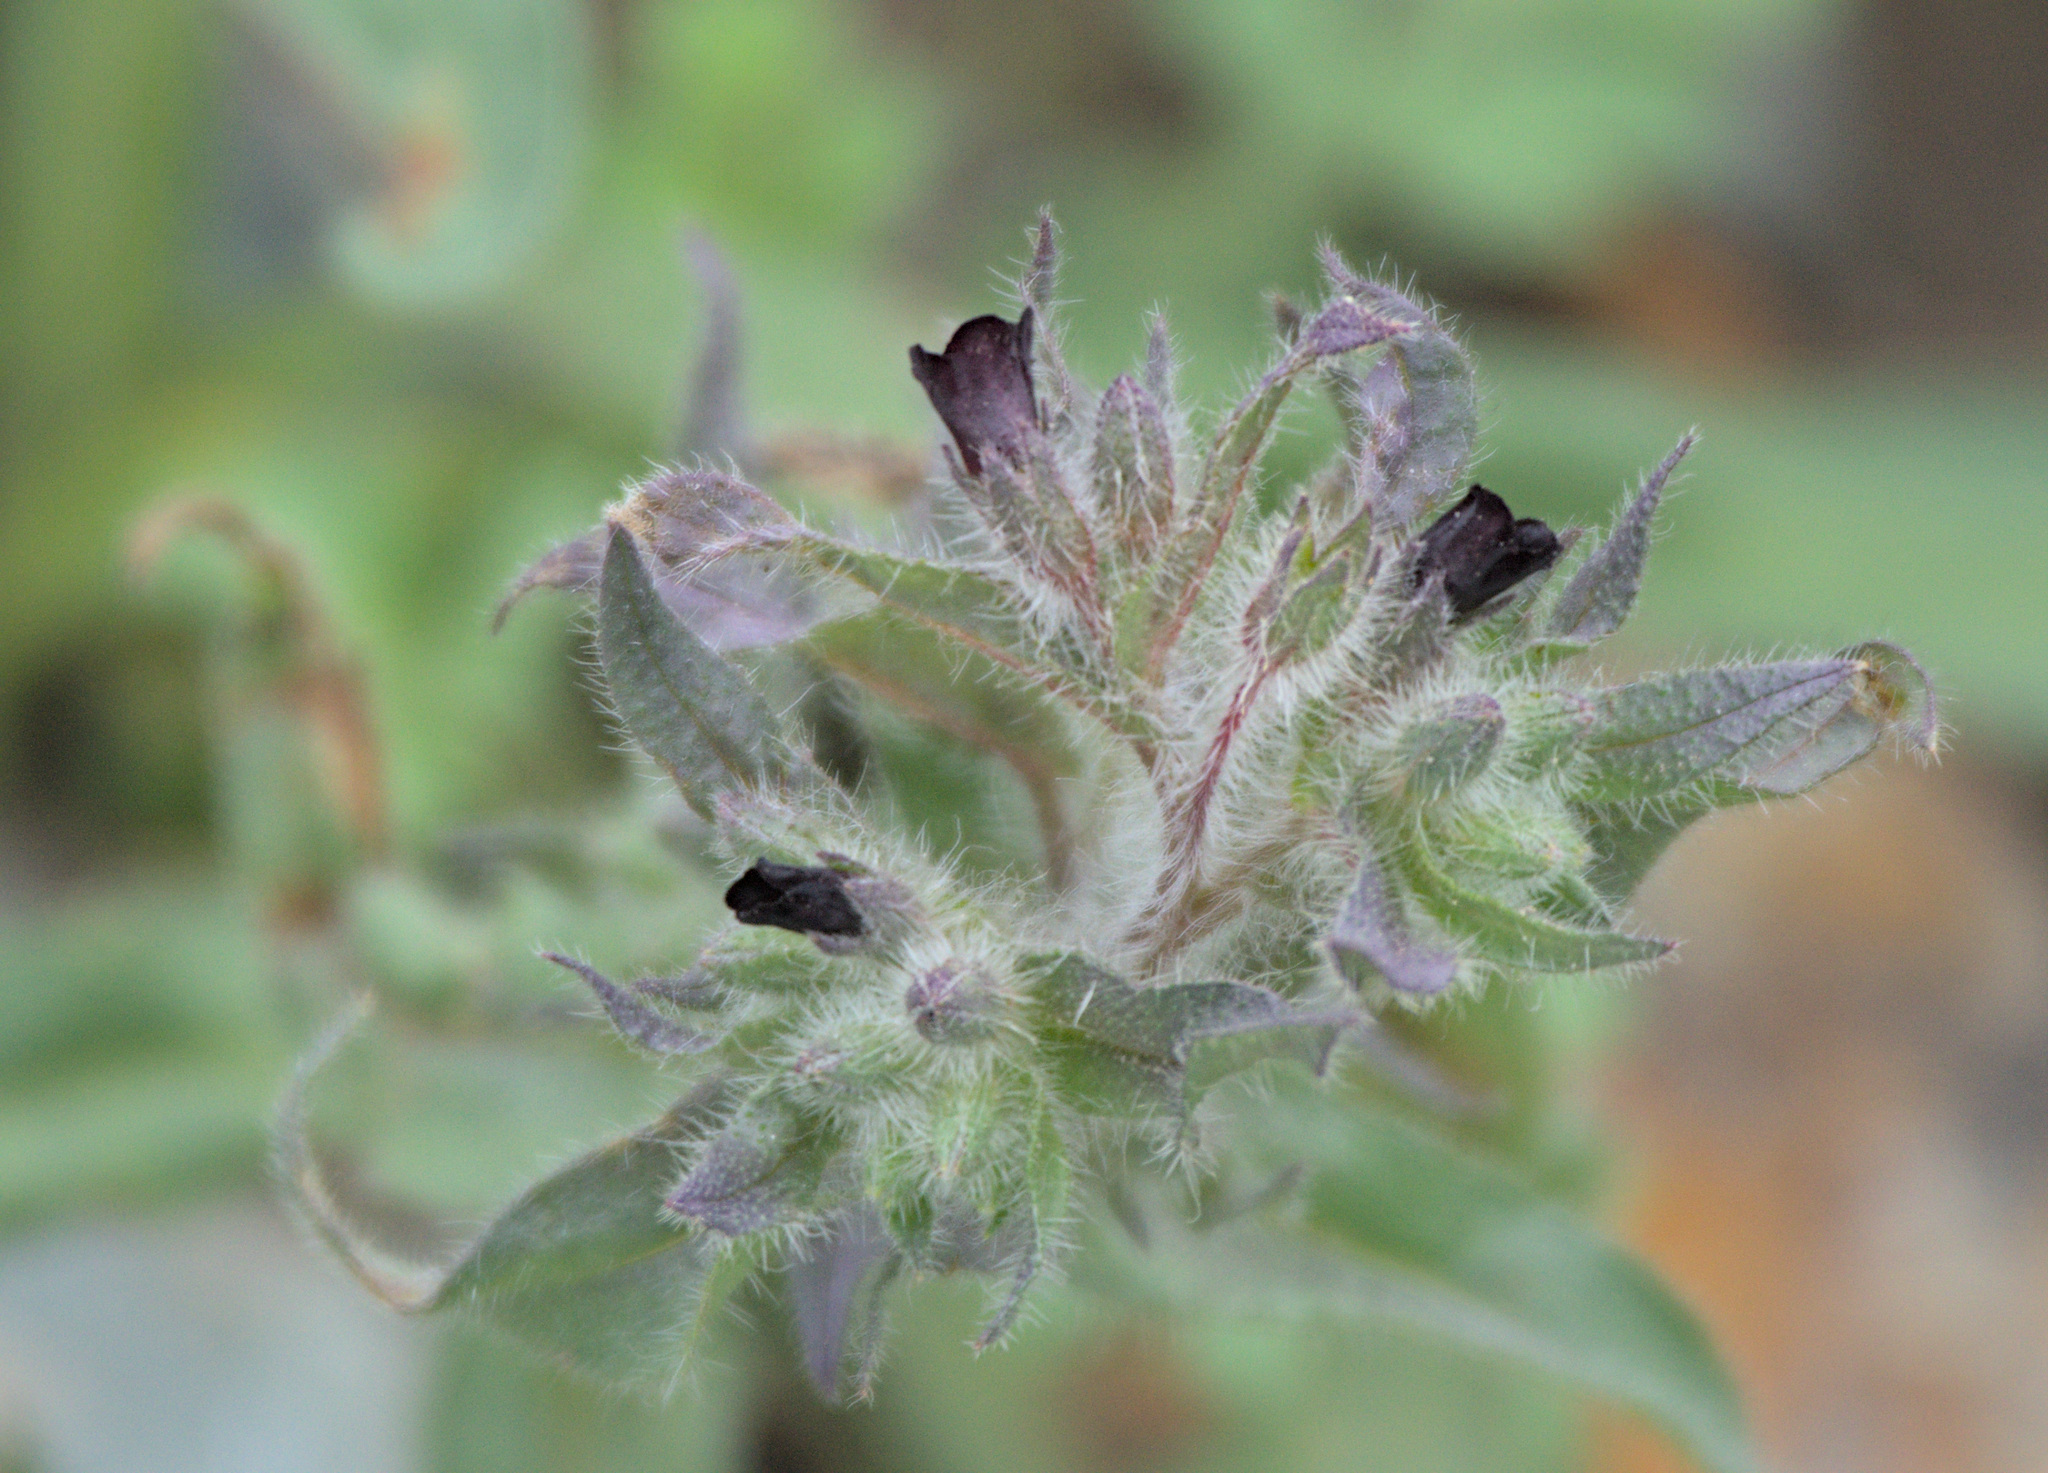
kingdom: Plantae
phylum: Tracheophyta
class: Magnoliopsida
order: Boraginales
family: Boraginaceae
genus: Nonea
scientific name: Nonea pulla
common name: Brown nonea
